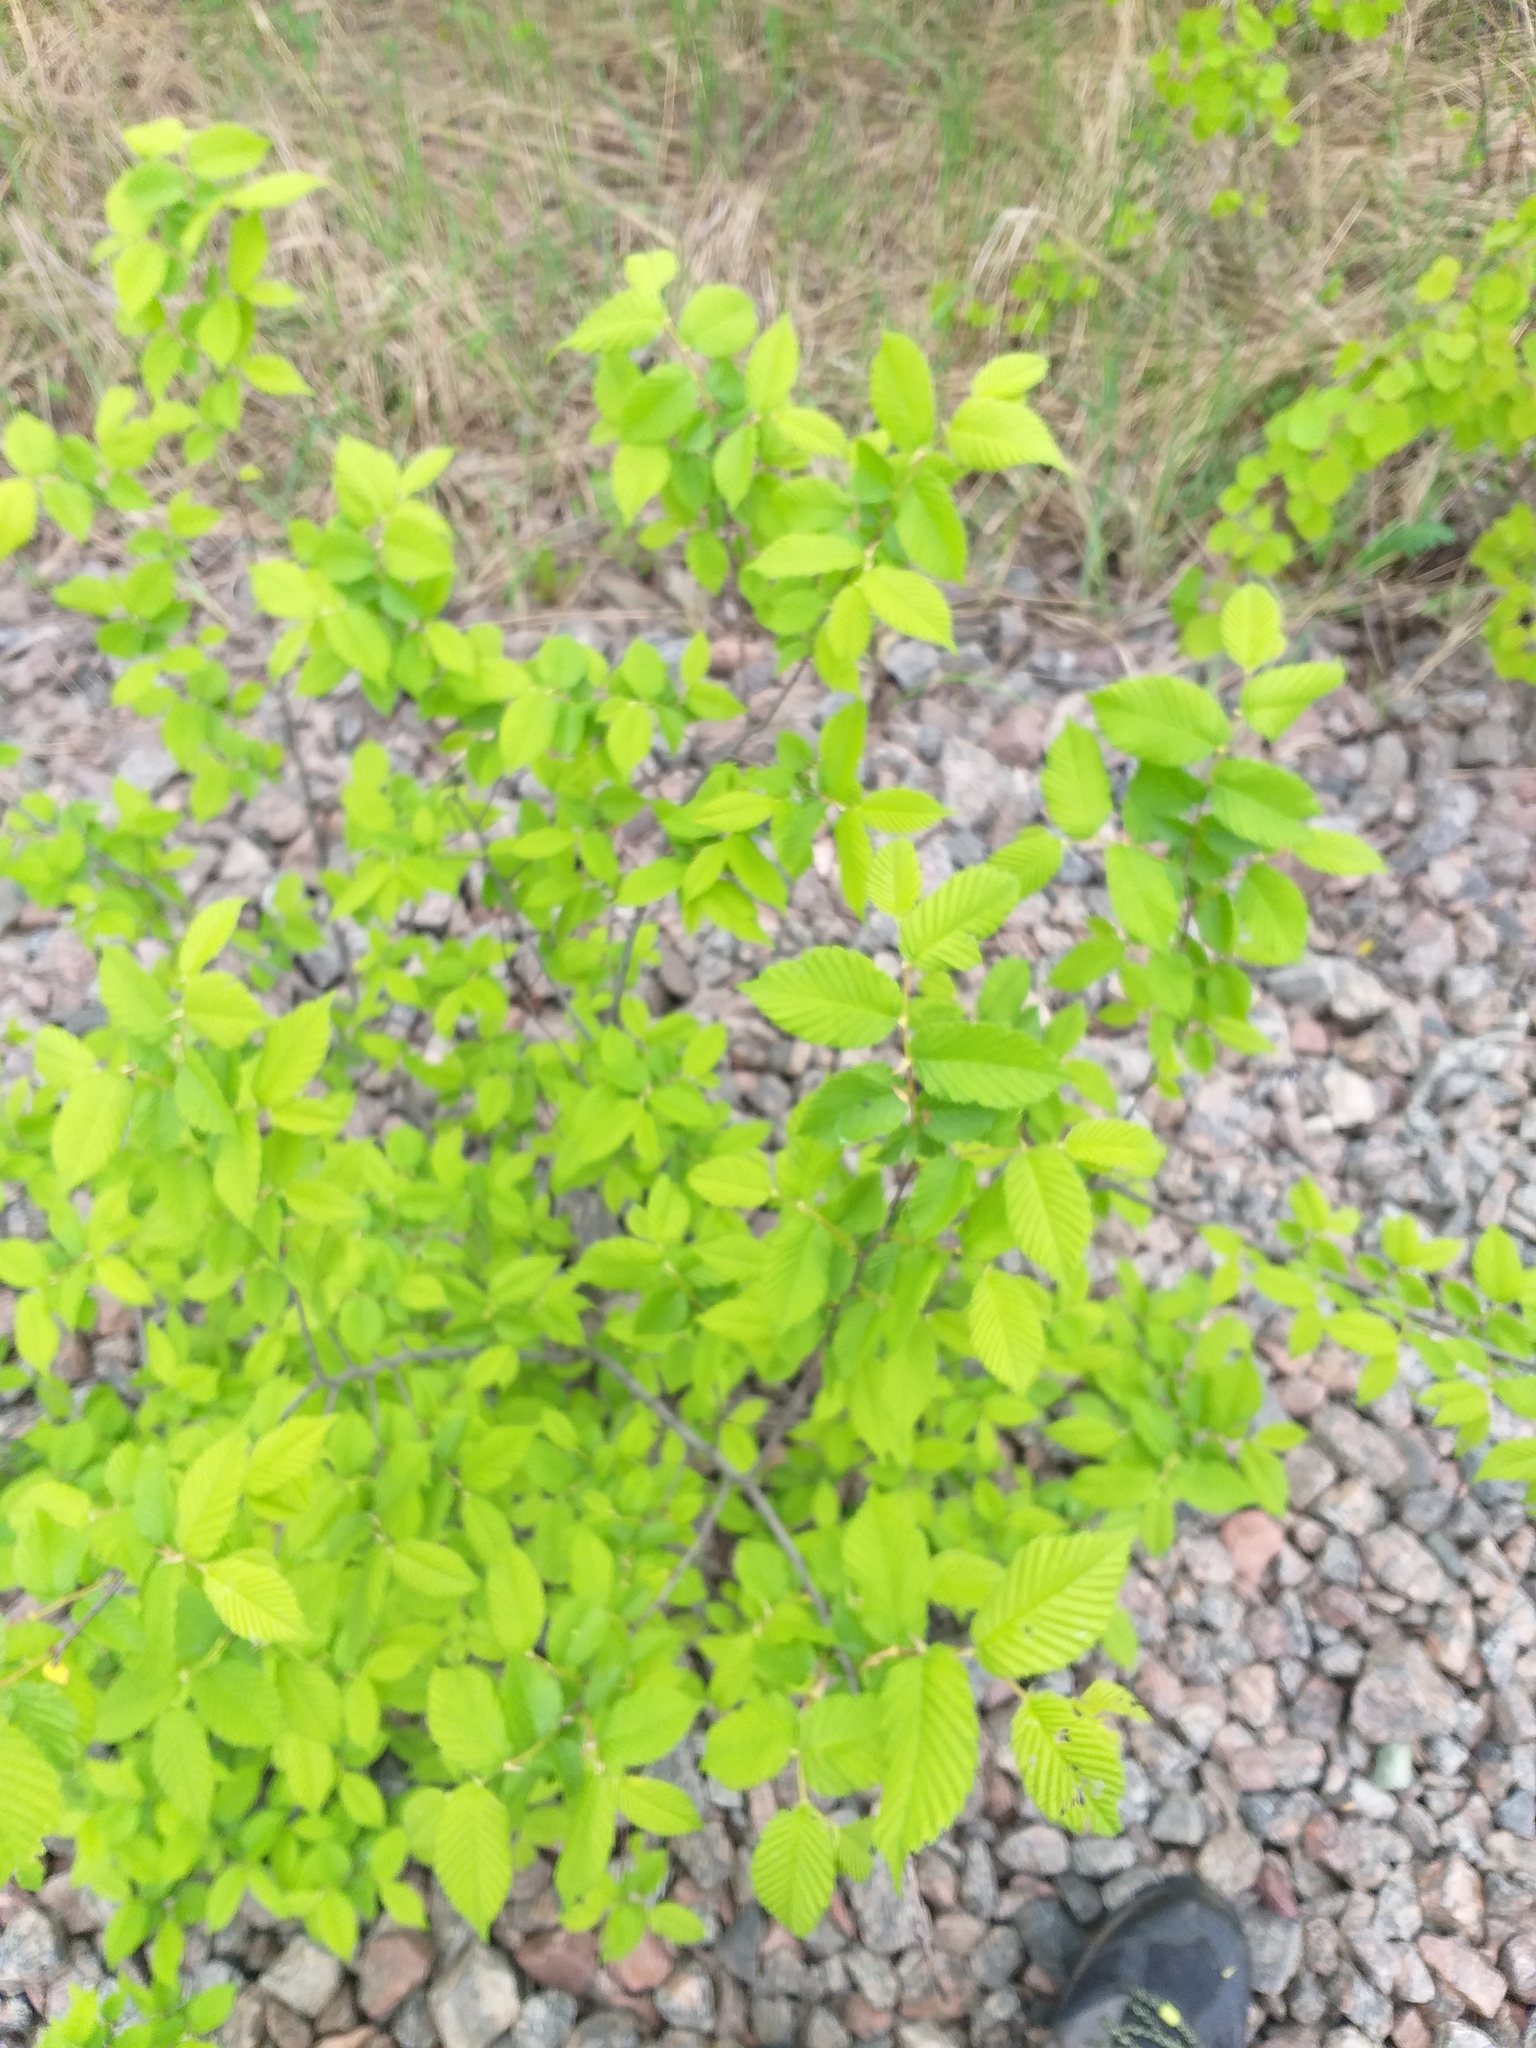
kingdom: Plantae
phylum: Tracheophyta
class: Magnoliopsida
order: Rosales
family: Ulmaceae
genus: Ulmus
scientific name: Ulmus laevis
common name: European white-elm
